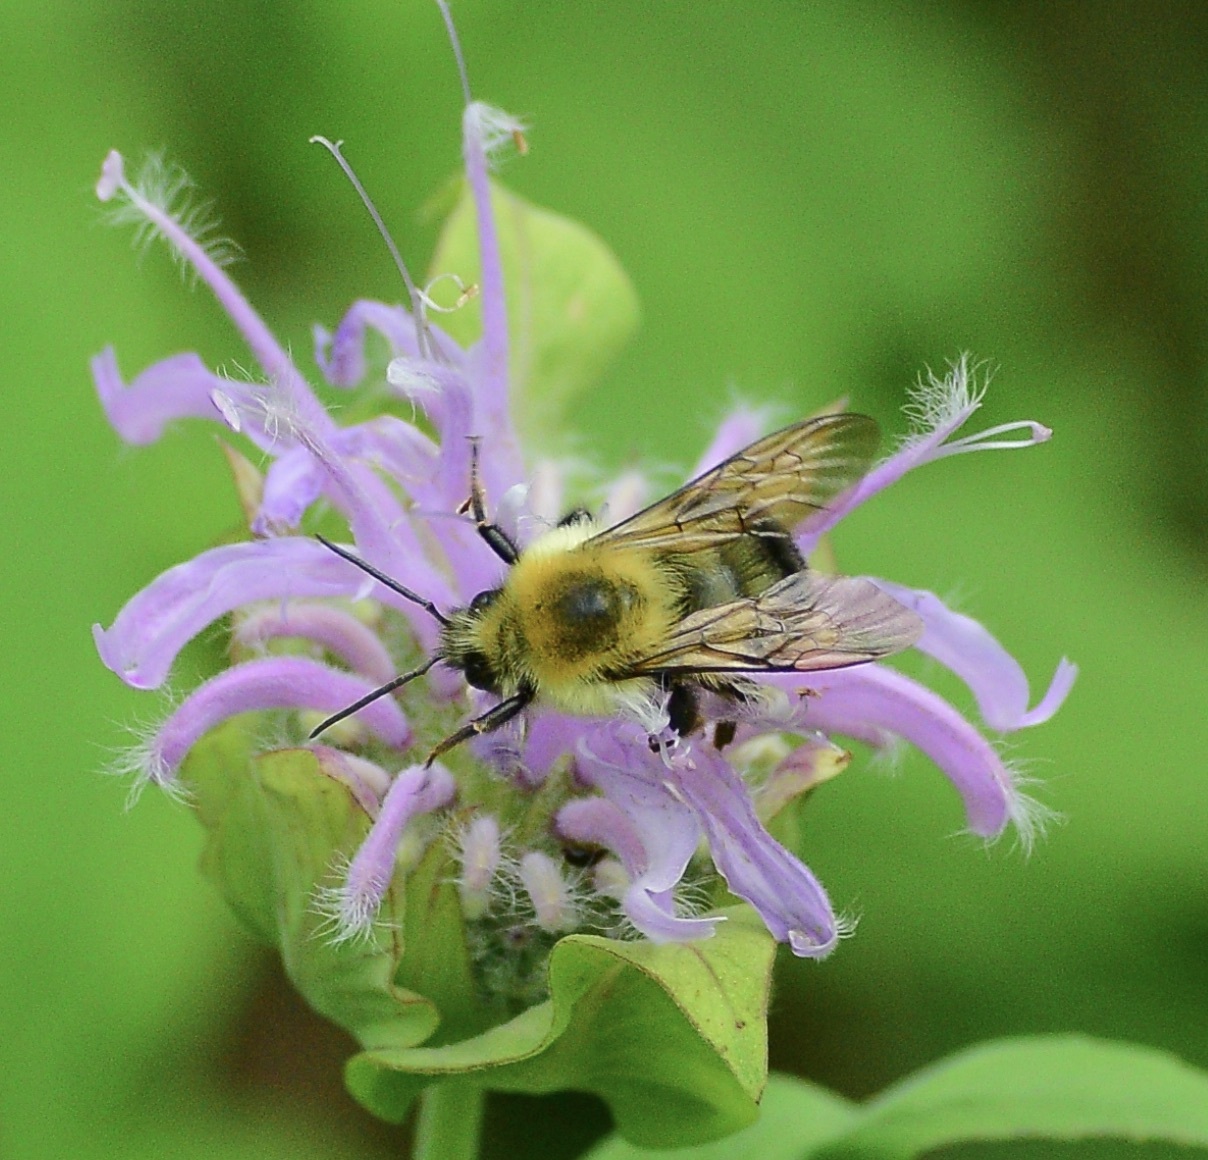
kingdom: Animalia
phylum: Arthropoda
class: Insecta
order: Hymenoptera
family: Apidae
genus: Bombus
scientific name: Bombus bimaculatus
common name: Two-spotted bumble bee
